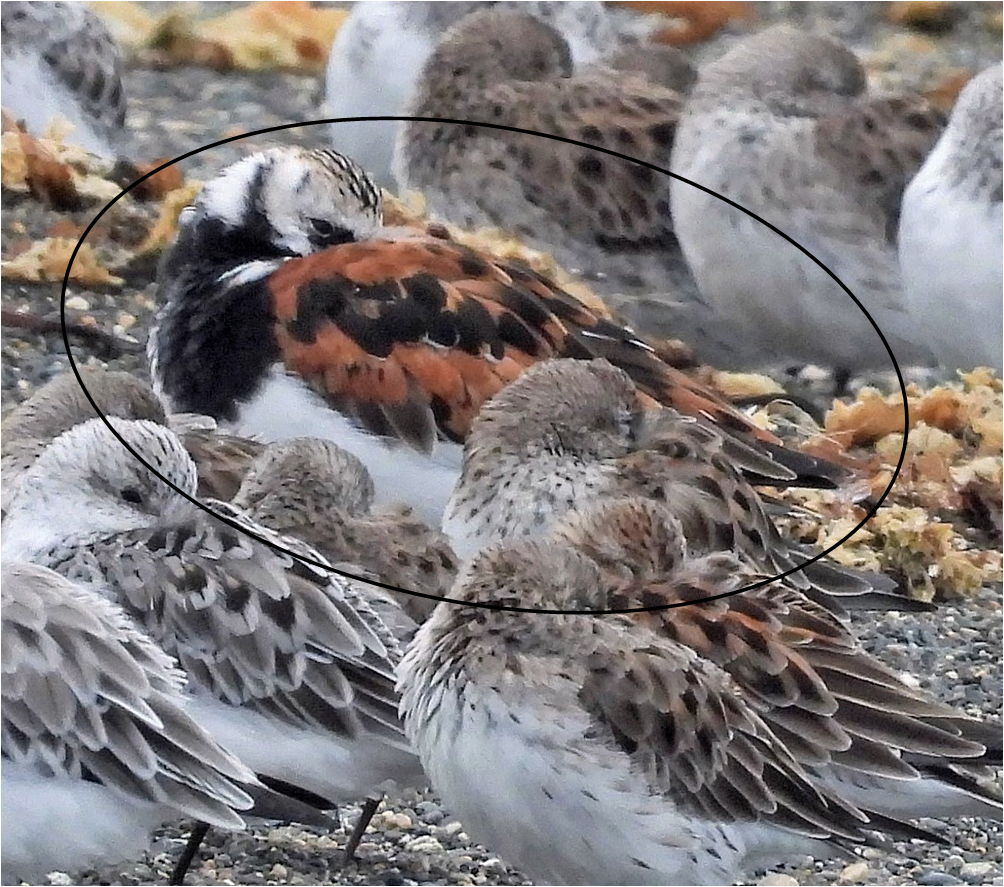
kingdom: Animalia
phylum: Chordata
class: Aves
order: Charadriiformes
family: Scolopacidae
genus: Arenaria
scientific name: Arenaria interpres
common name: Ruddy turnstone
